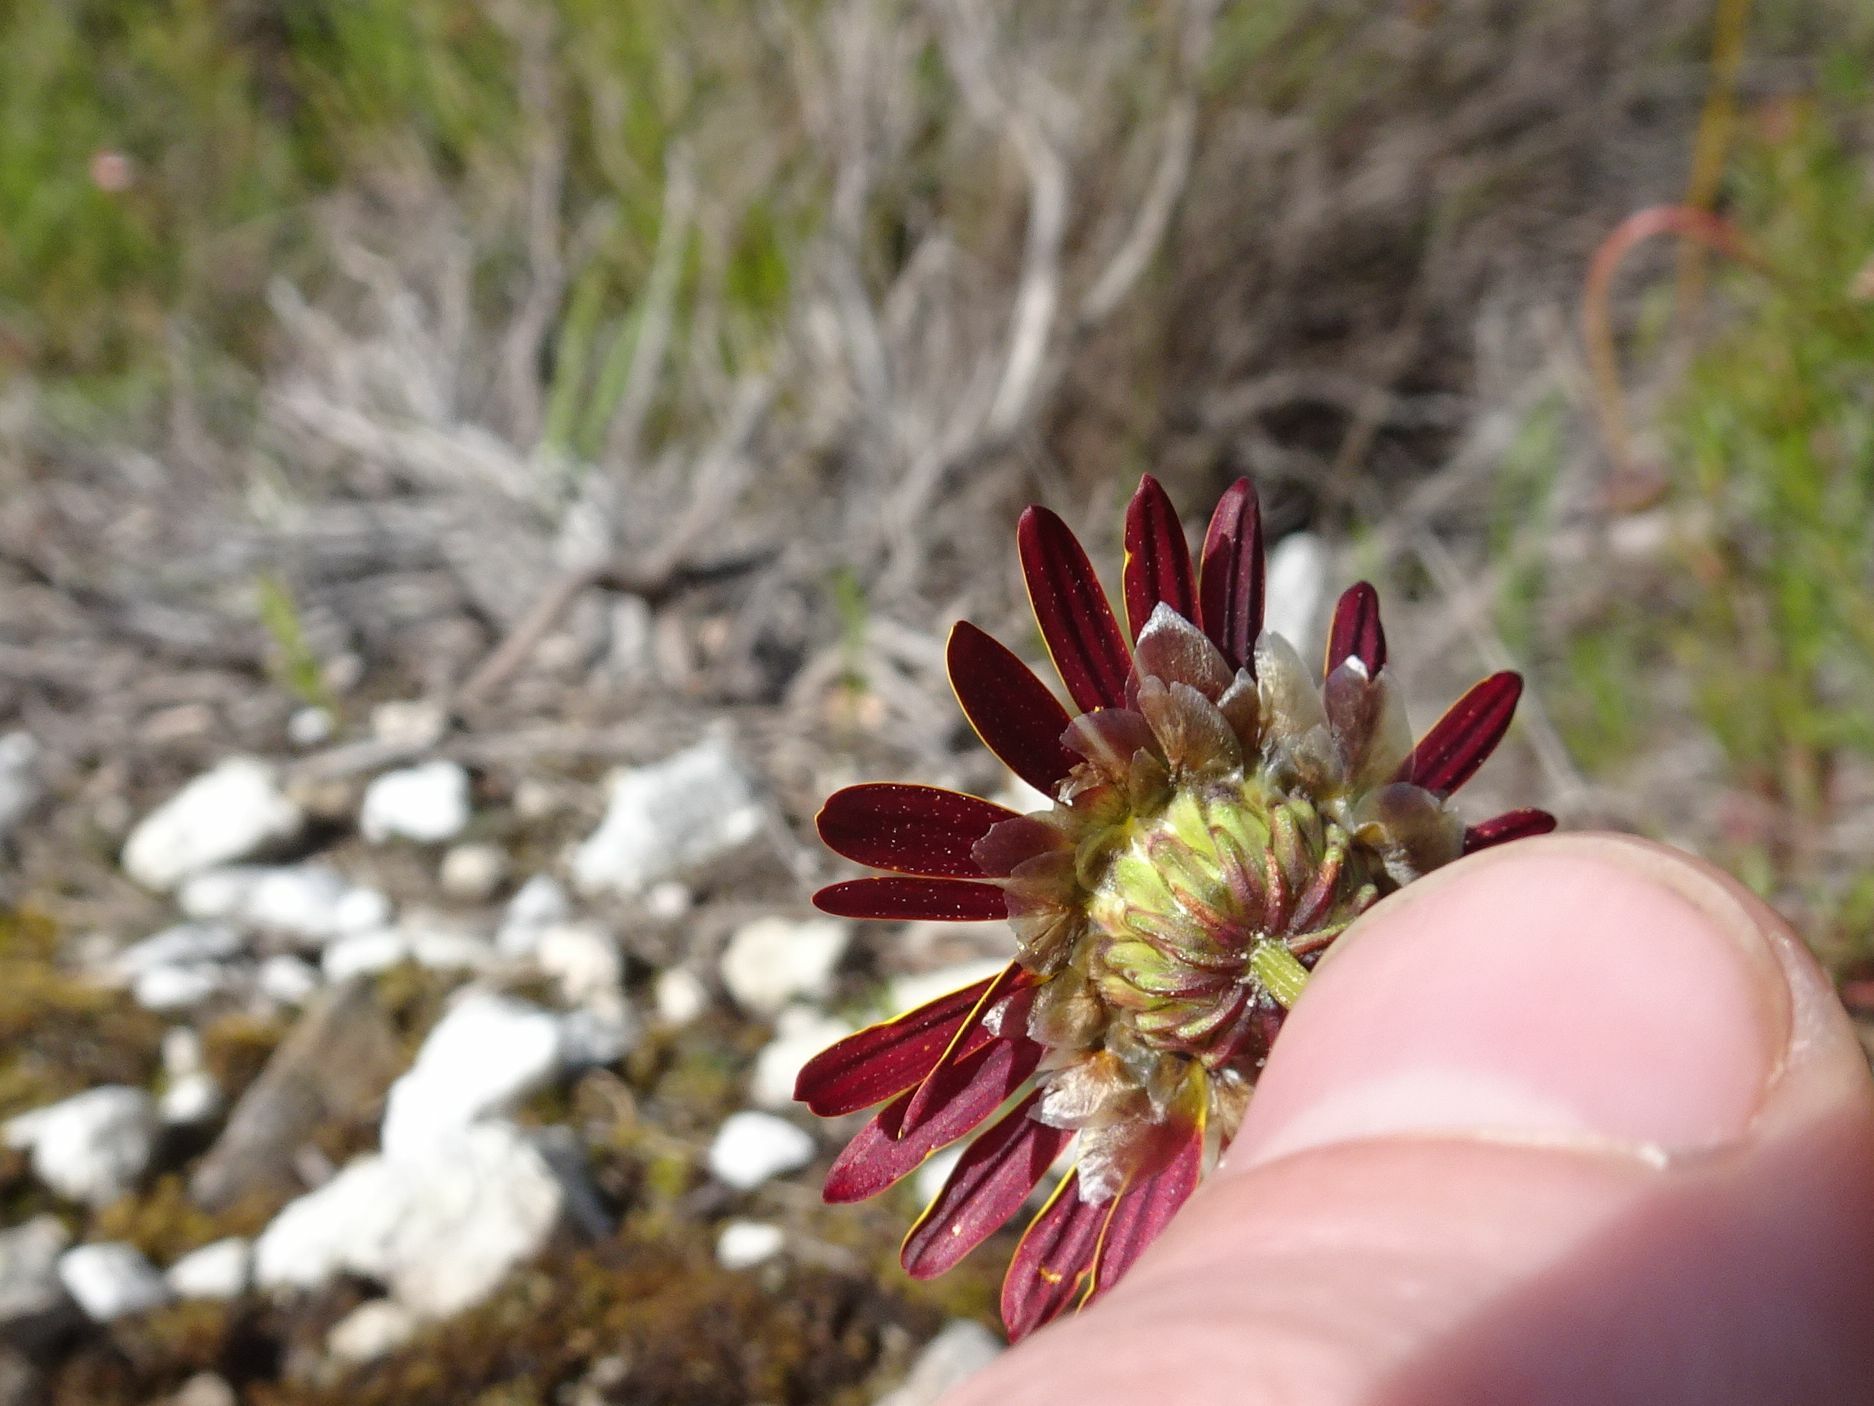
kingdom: Plantae
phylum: Tracheophyta
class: Magnoliopsida
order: Asterales
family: Asteraceae
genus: Ursinia
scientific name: Ursinia paleacea
